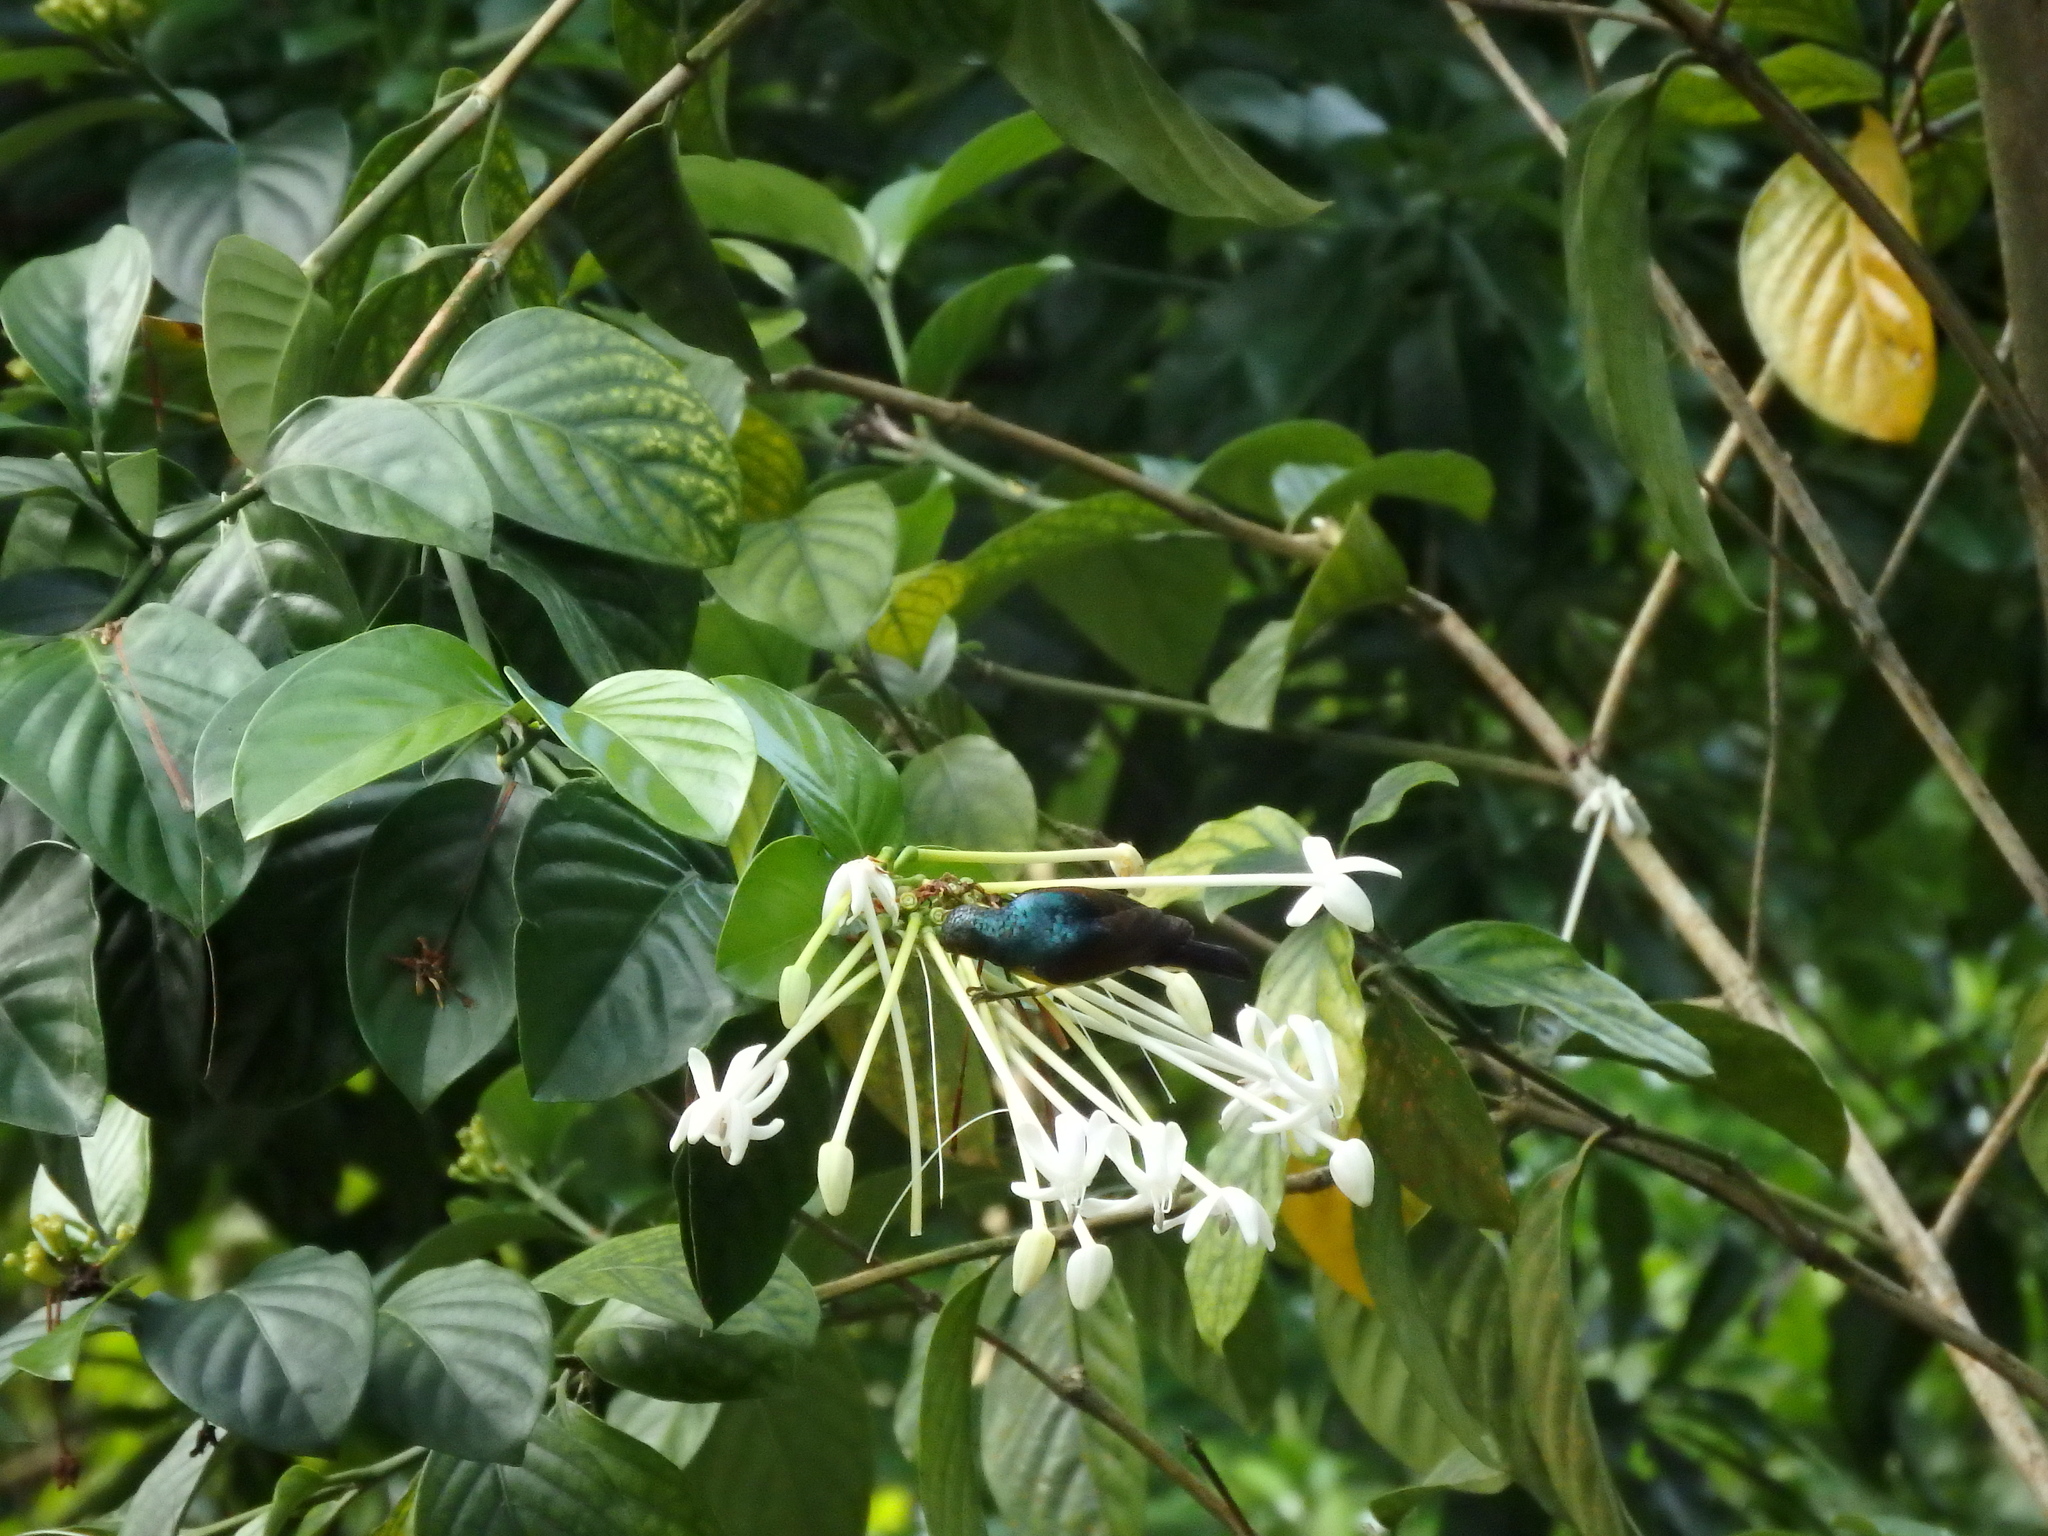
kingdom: Animalia
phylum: Chordata
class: Aves
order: Passeriformes
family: Nectariniidae
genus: Anthreptes
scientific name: Anthreptes malacensis
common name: Brown-throated sunbird
